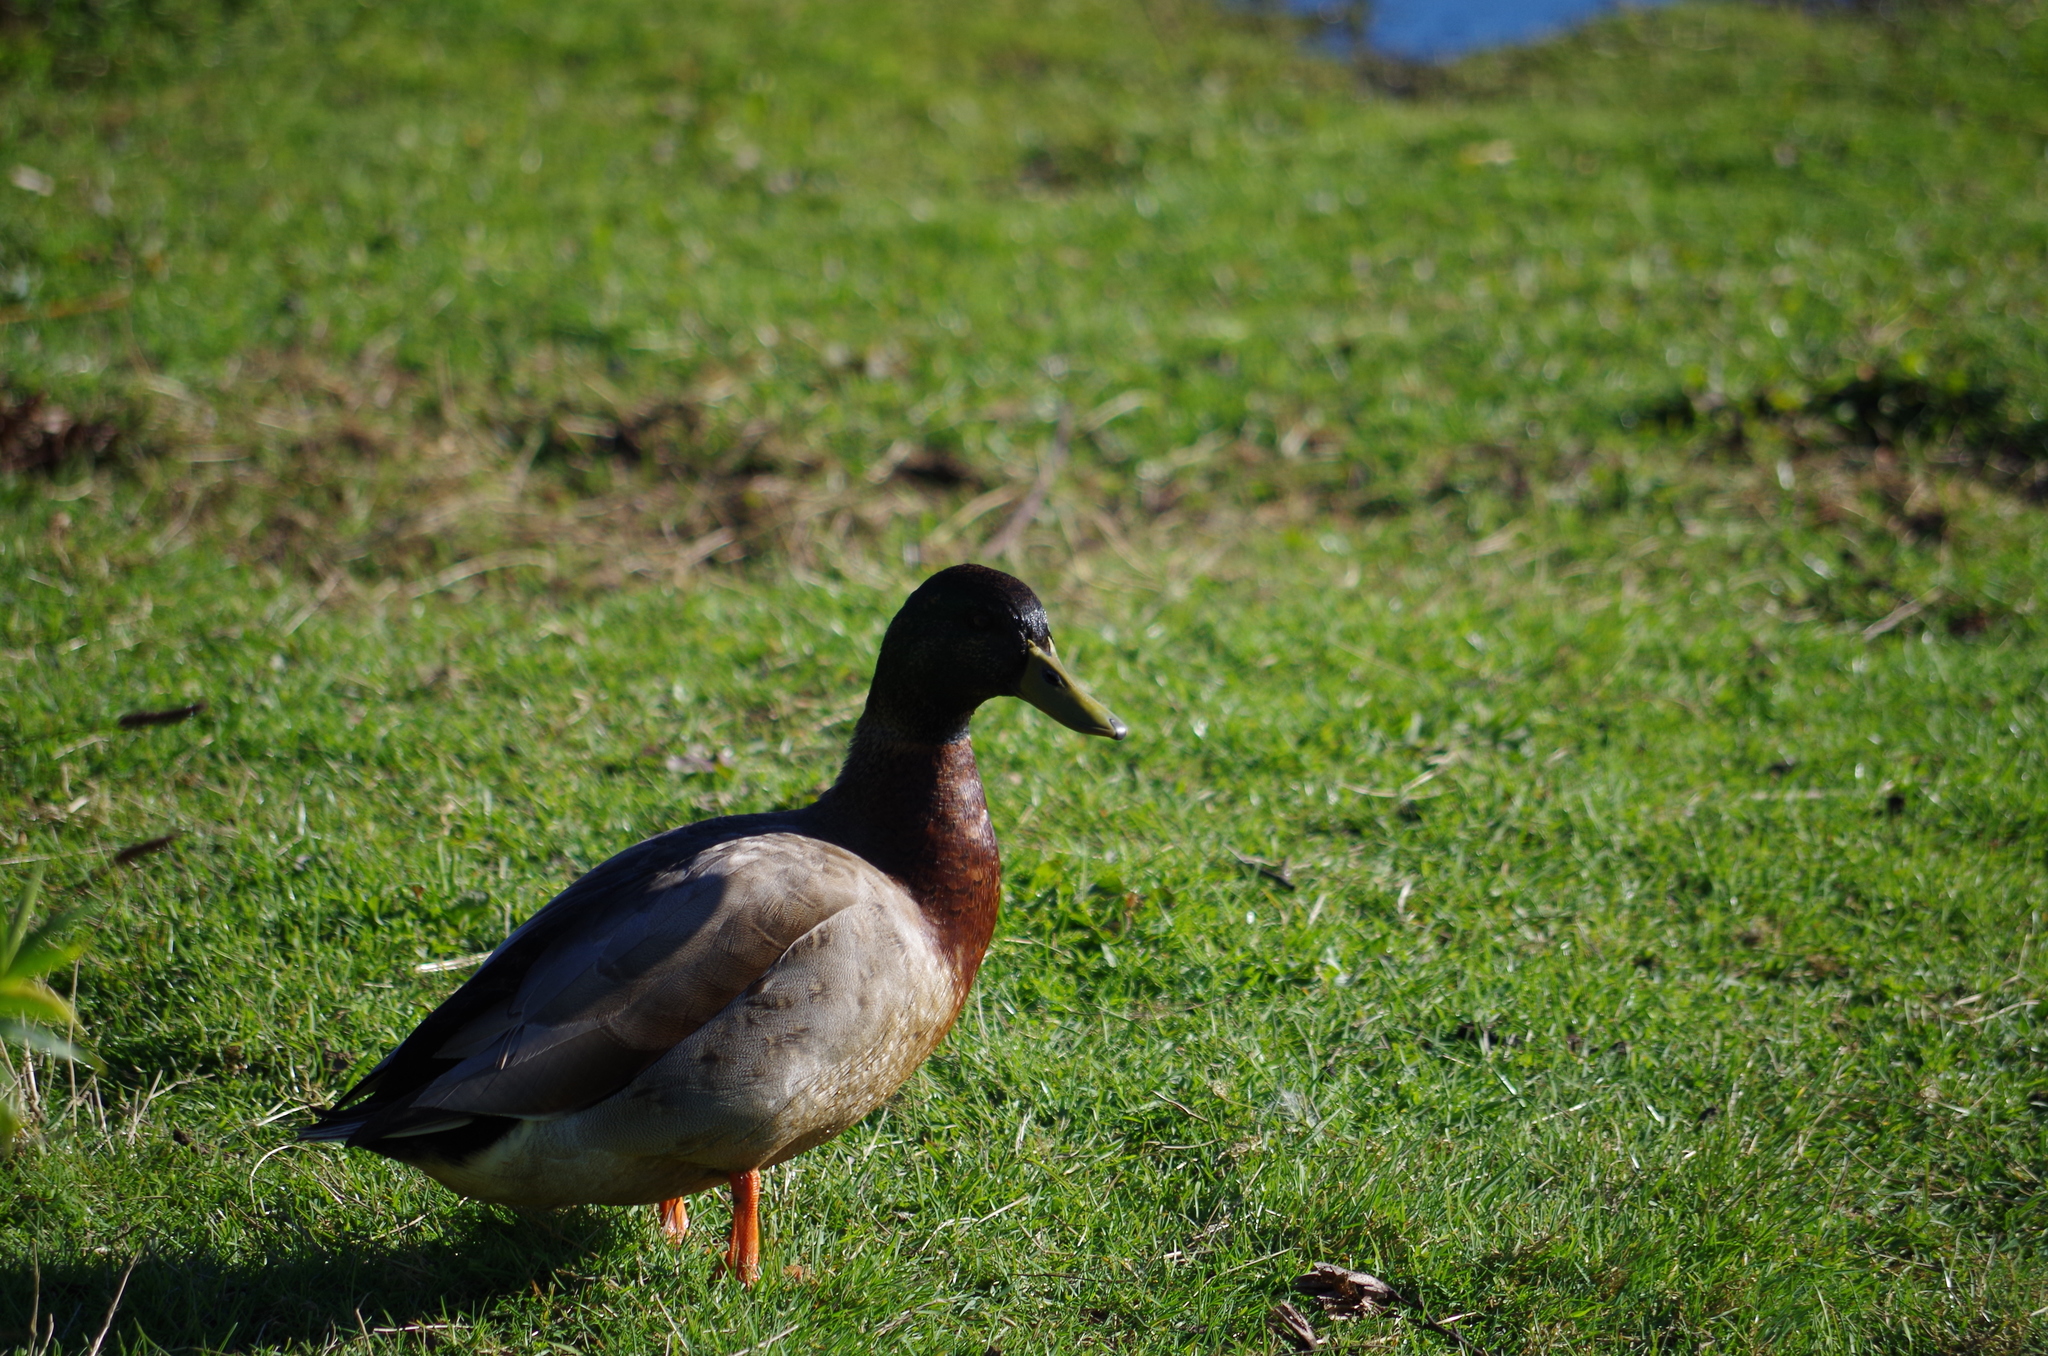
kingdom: Animalia
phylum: Chordata
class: Aves
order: Anseriformes
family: Anatidae
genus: Anas
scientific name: Anas
